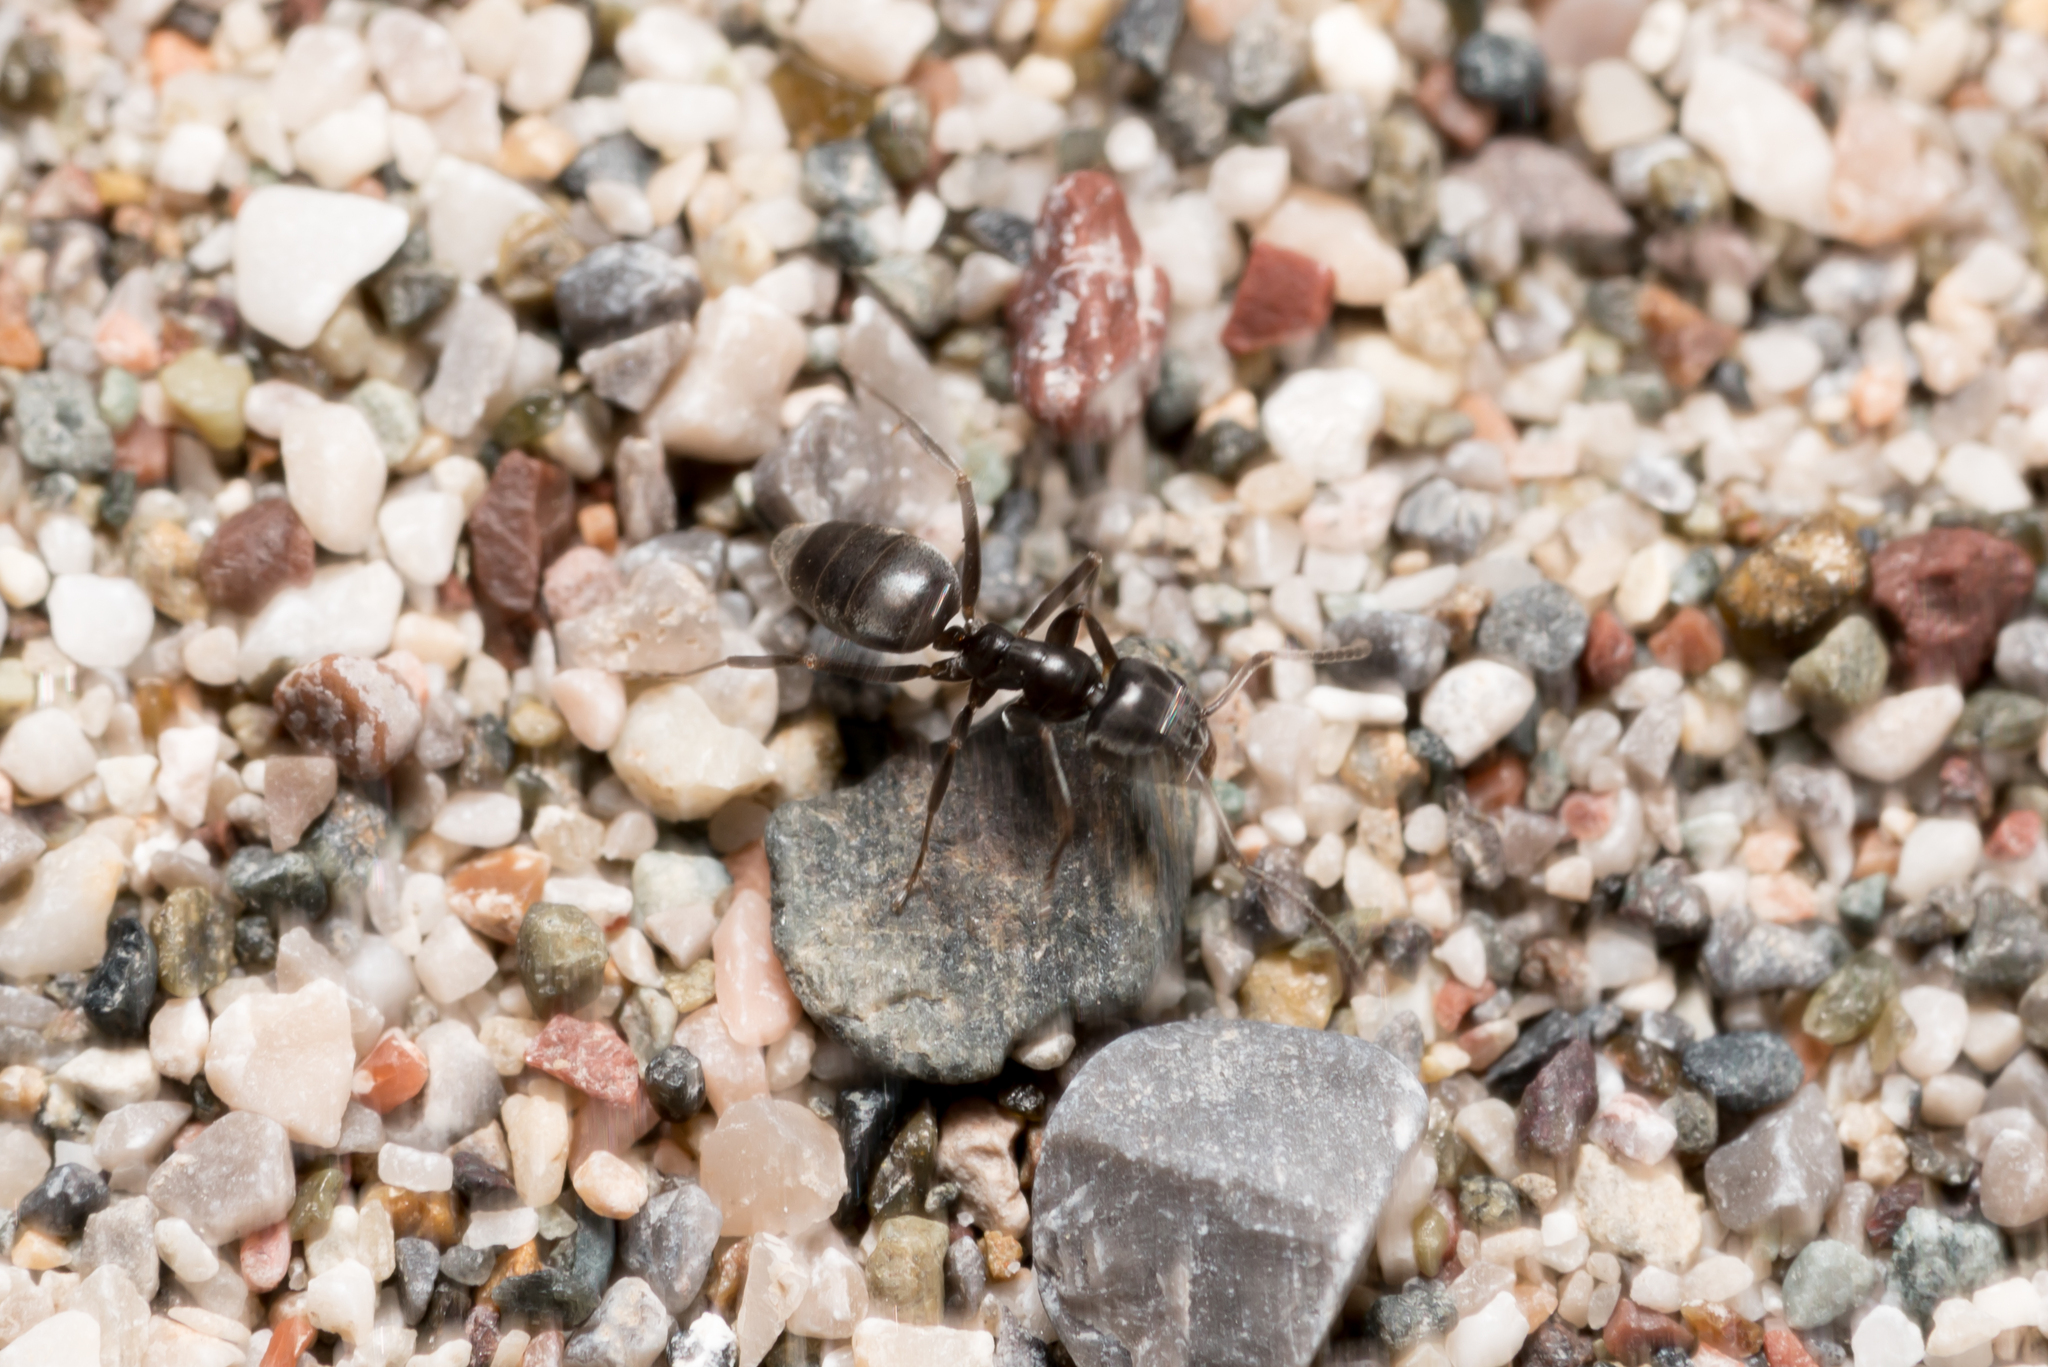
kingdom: Animalia
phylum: Arthropoda
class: Insecta
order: Hymenoptera
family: Formicidae
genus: Tapinoma
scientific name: Tapinoma
